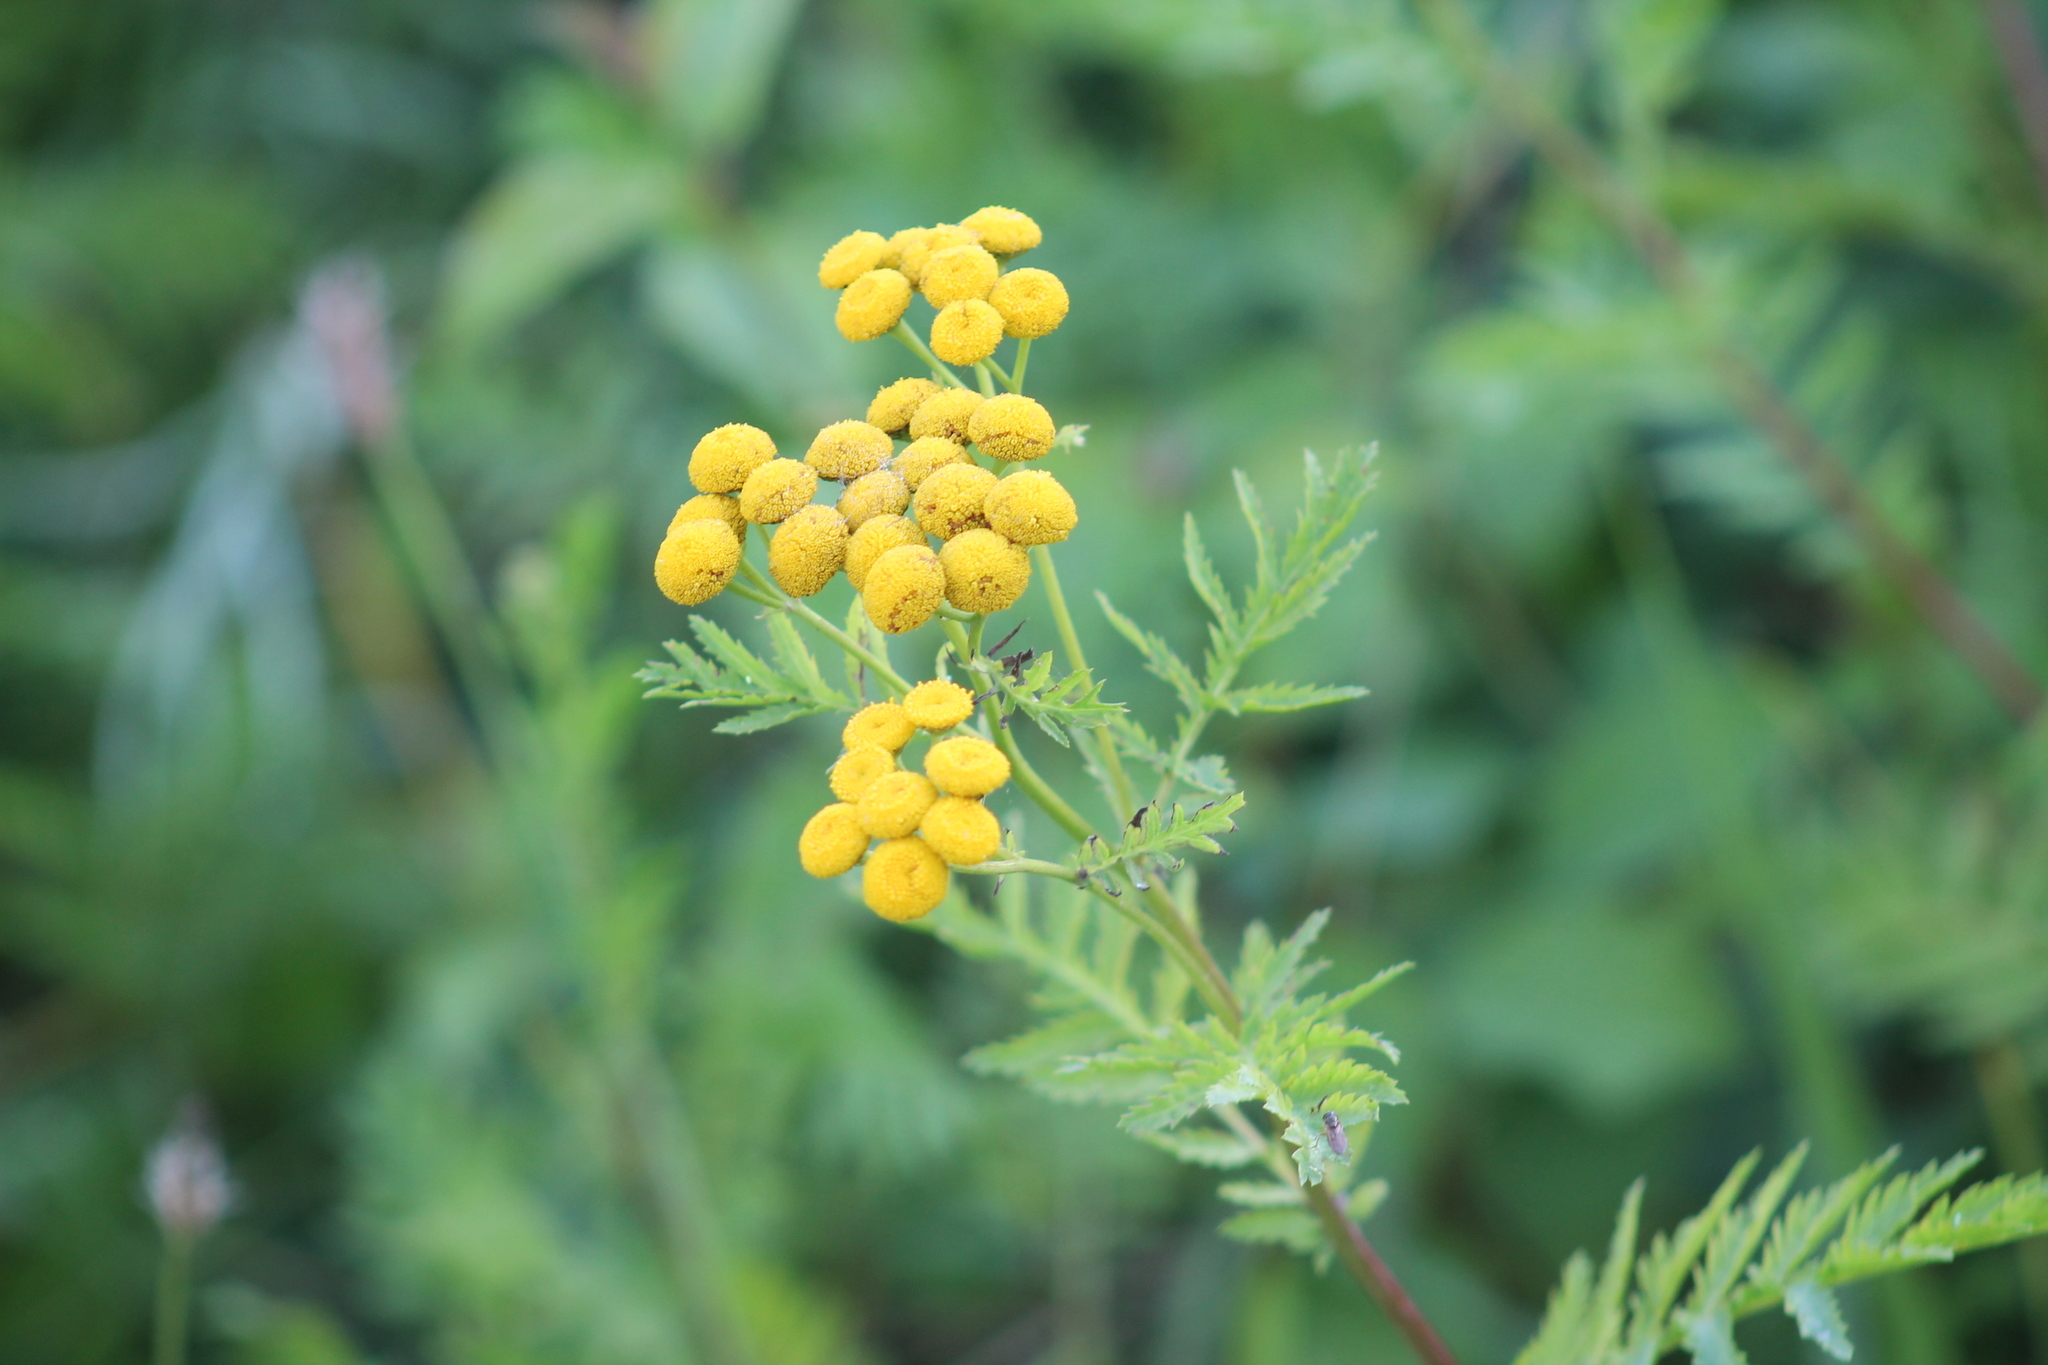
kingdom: Plantae
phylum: Tracheophyta
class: Magnoliopsida
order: Asterales
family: Asteraceae
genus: Tanacetum
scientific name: Tanacetum vulgare
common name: Common tansy
